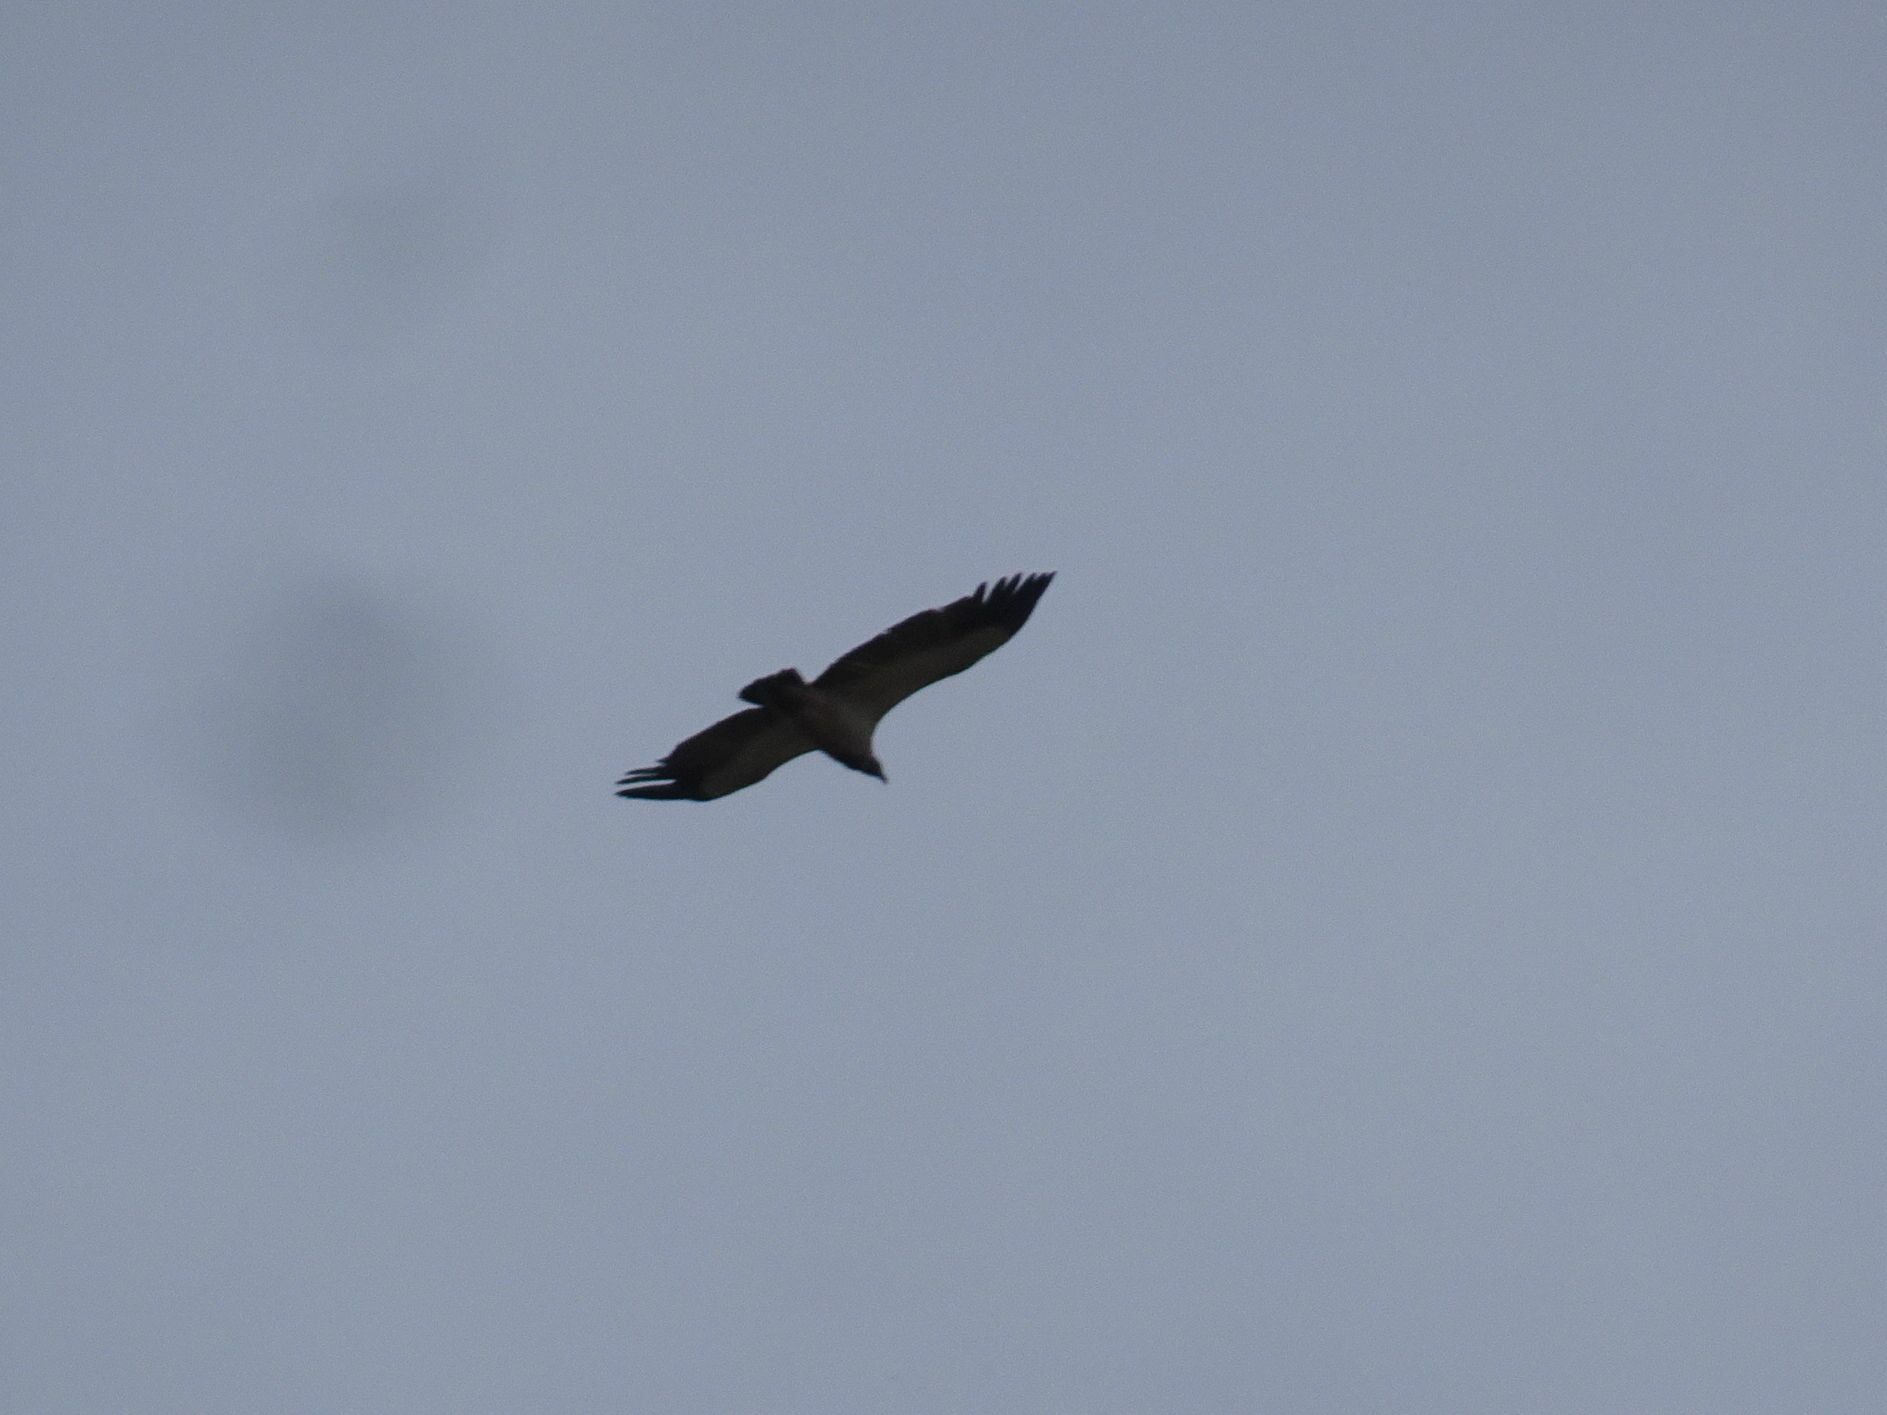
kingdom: Animalia
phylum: Chordata
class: Aves
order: Accipitriformes
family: Accipitridae
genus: Gyps
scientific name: Gyps coprotheres
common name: Cape vulture
